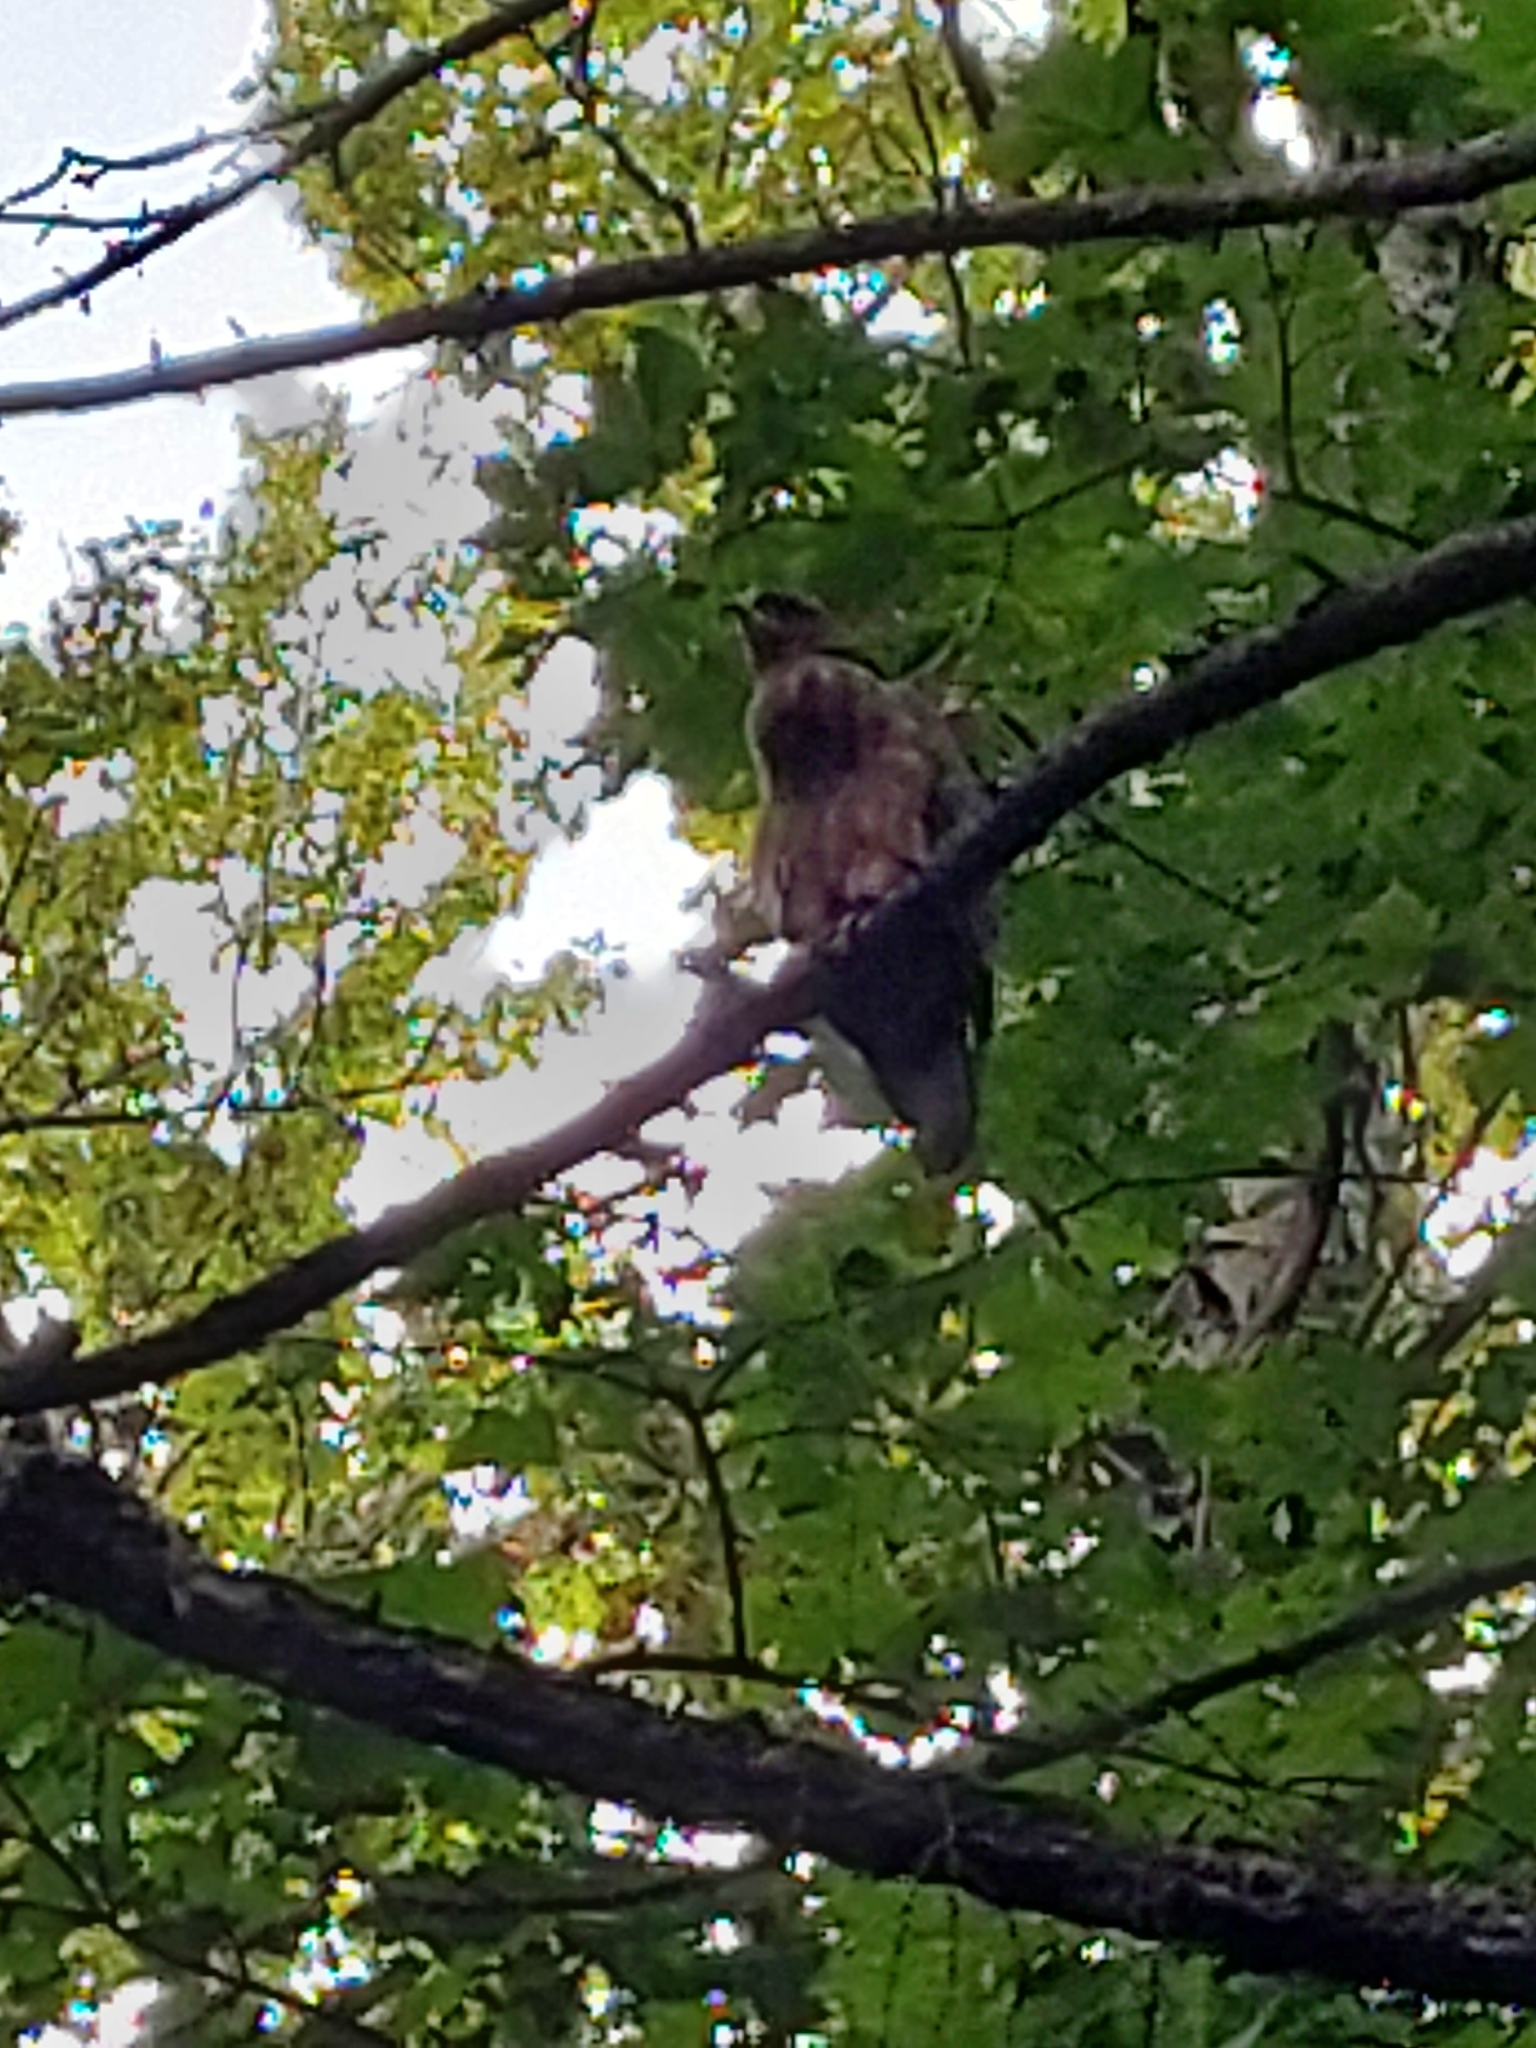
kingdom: Animalia
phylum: Chordata
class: Aves
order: Accipitriformes
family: Accipitridae
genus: Pernis
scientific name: Pernis apivorus
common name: European honey buzzard
